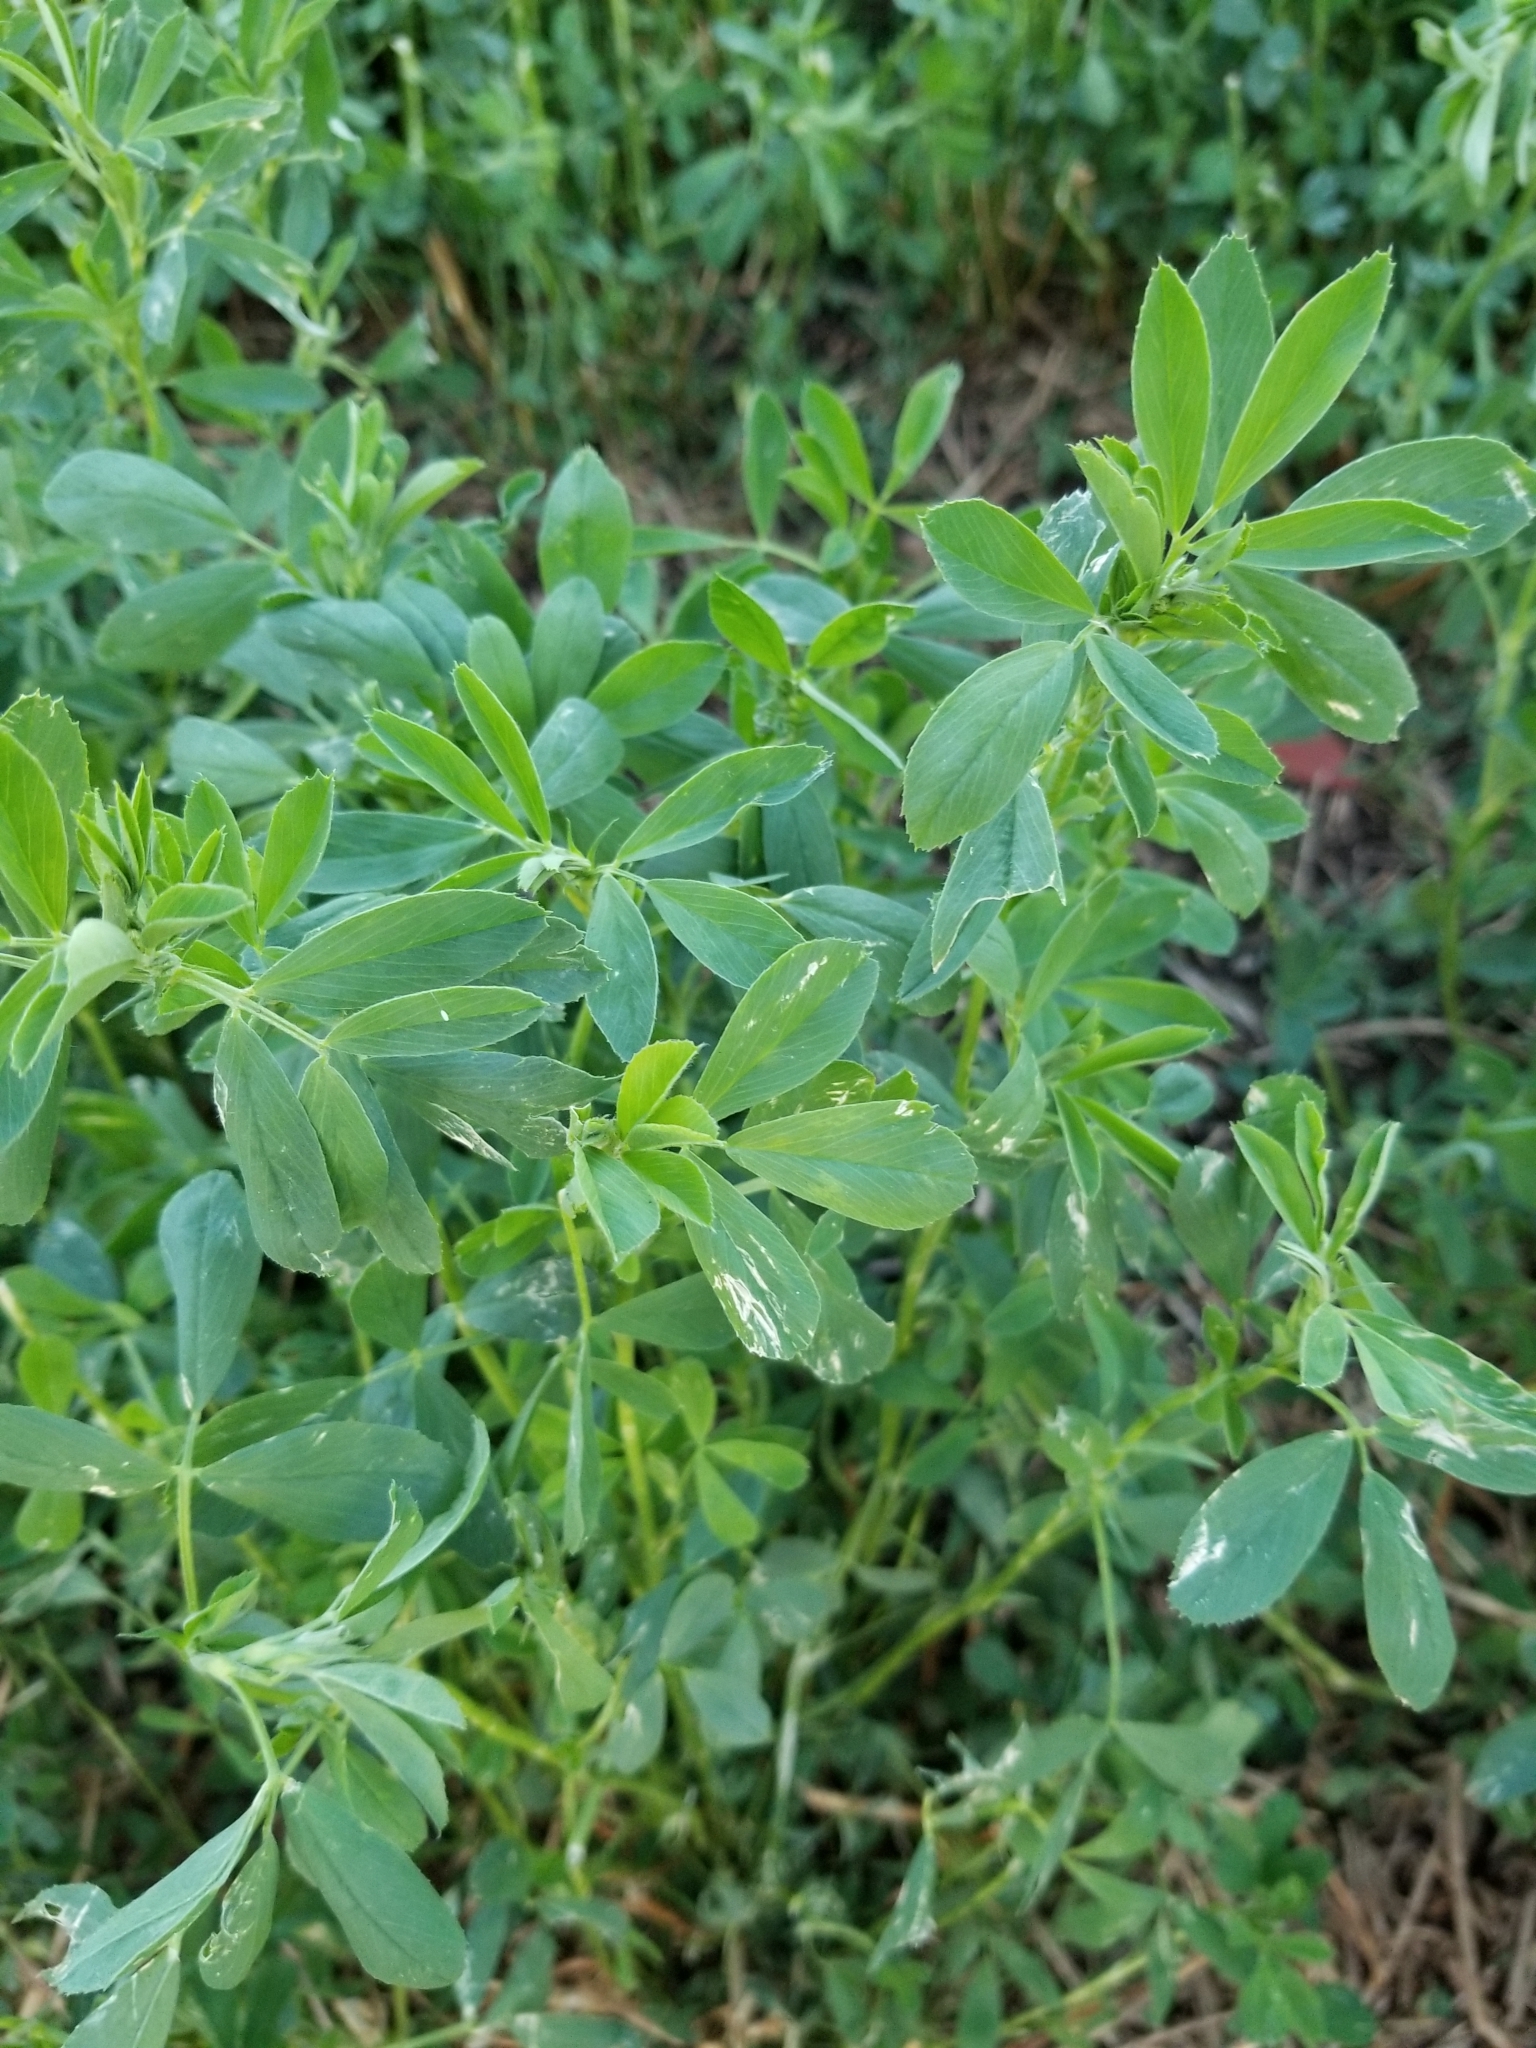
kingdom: Plantae
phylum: Tracheophyta
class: Magnoliopsida
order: Fabales
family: Fabaceae
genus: Medicago
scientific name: Medicago sativa
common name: Alfalfa
